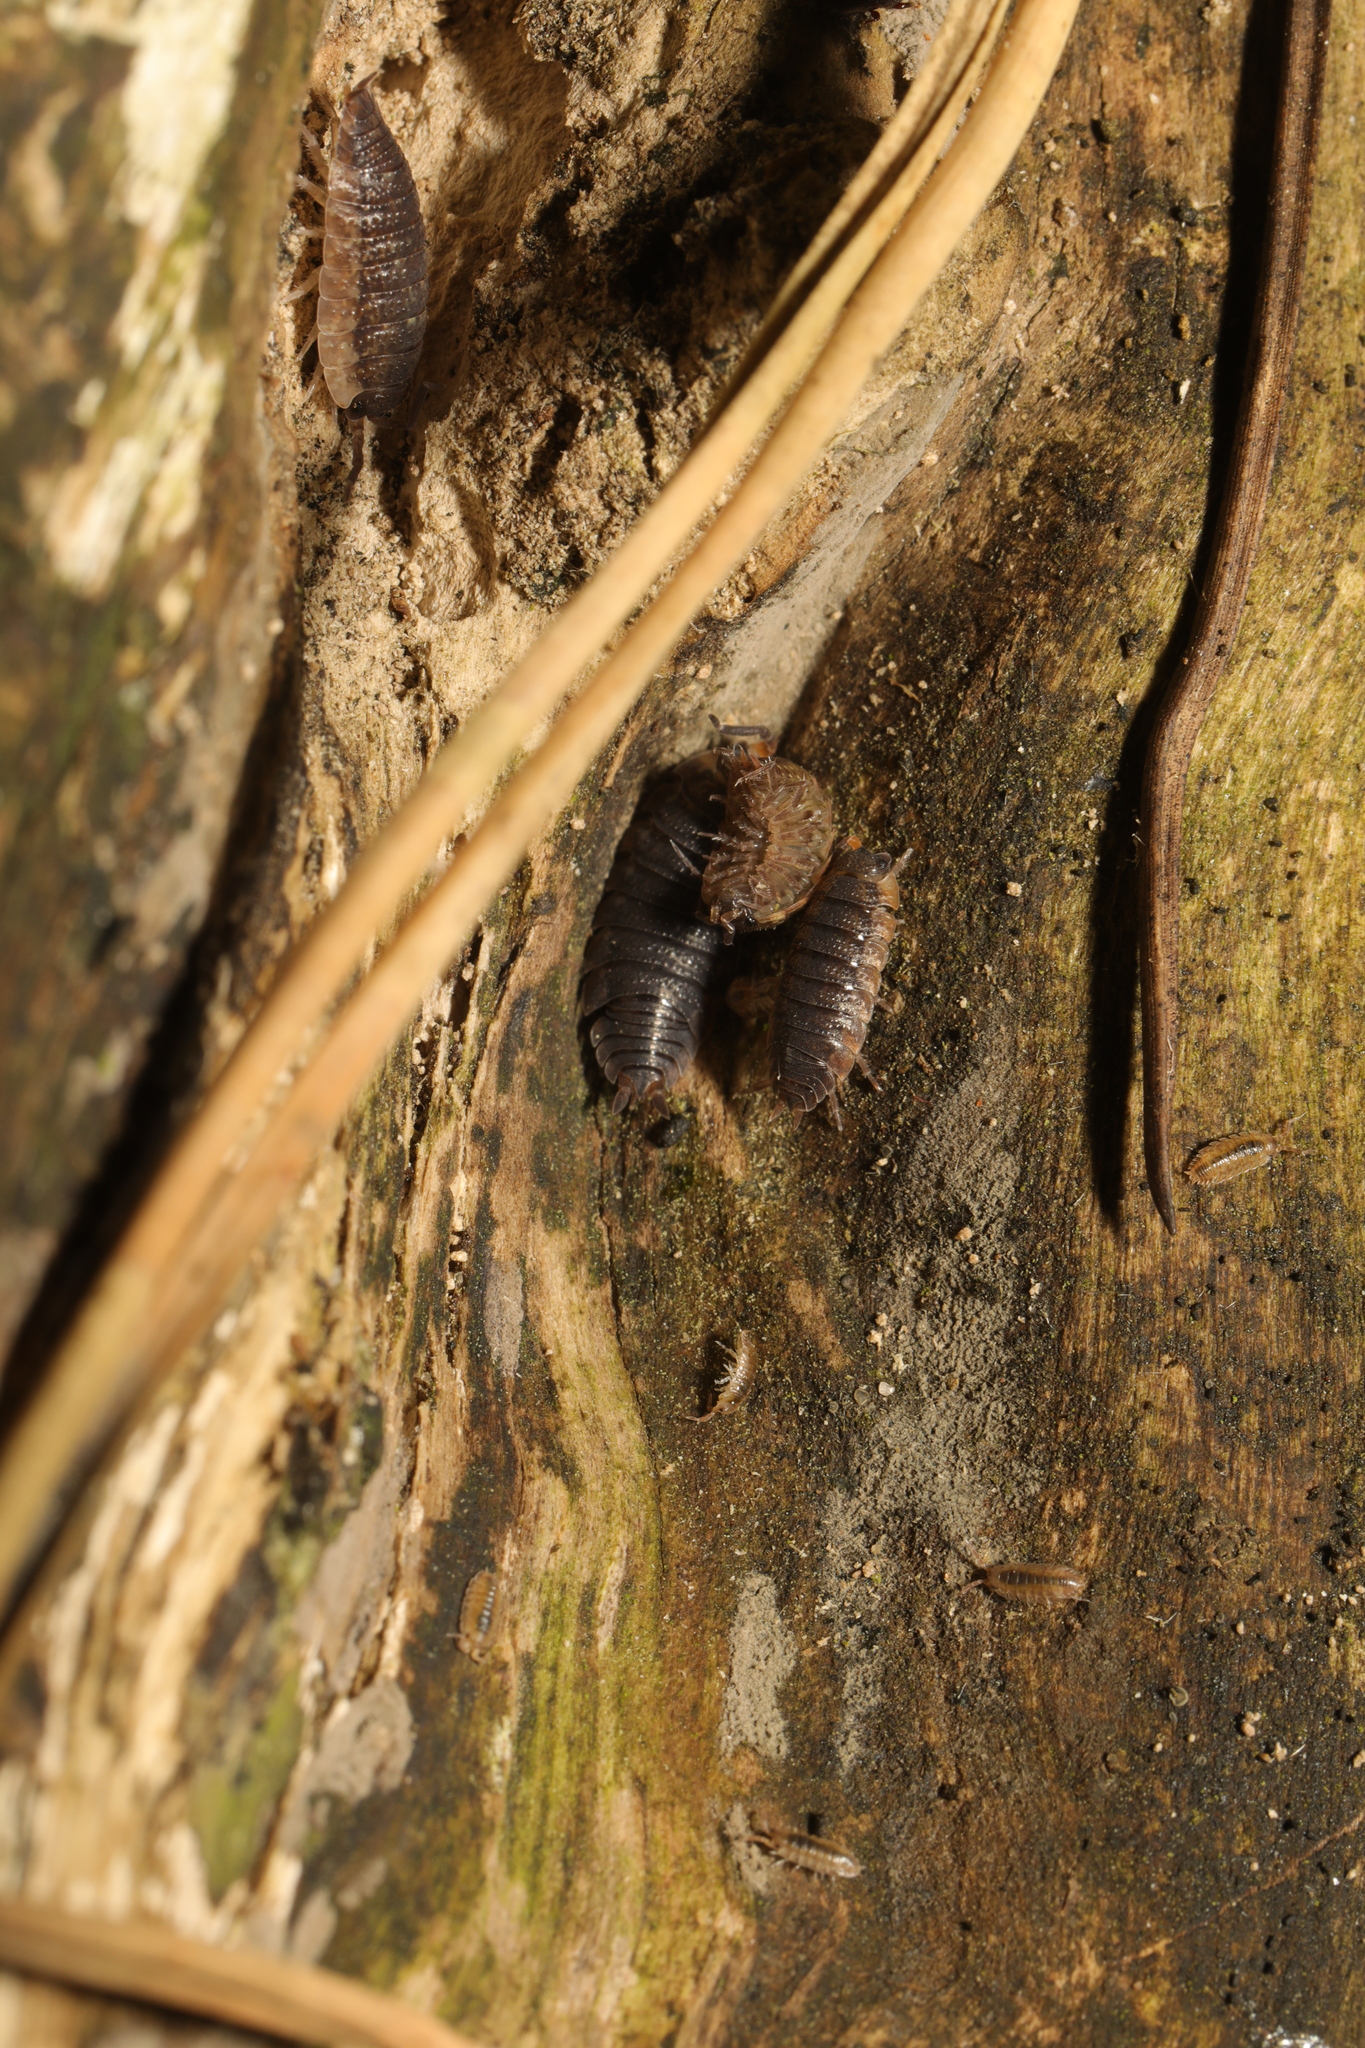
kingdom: Animalia
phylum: Arthropoda
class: Malacostraca
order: Isopoda
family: Porcellionidae
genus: Porcellio
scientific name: Porcellio scaber
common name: Common rough woodlouse
